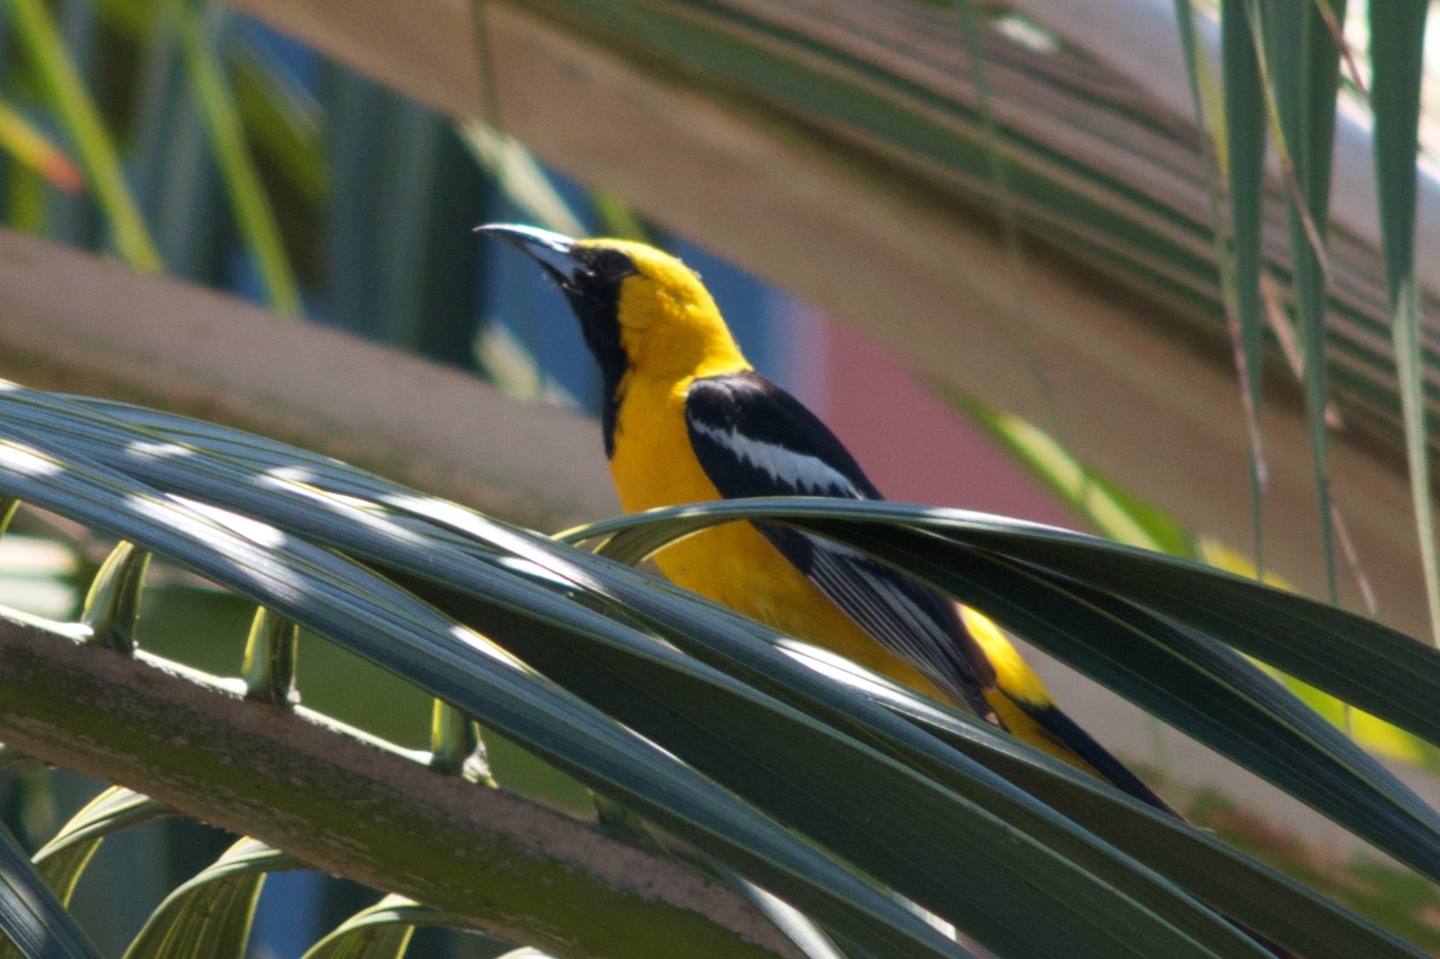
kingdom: Animalia
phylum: Chordata
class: Aves
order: Passeriformes
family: Icteridae
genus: Icterus
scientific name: Icterus cucullatus
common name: Hooded oriole
